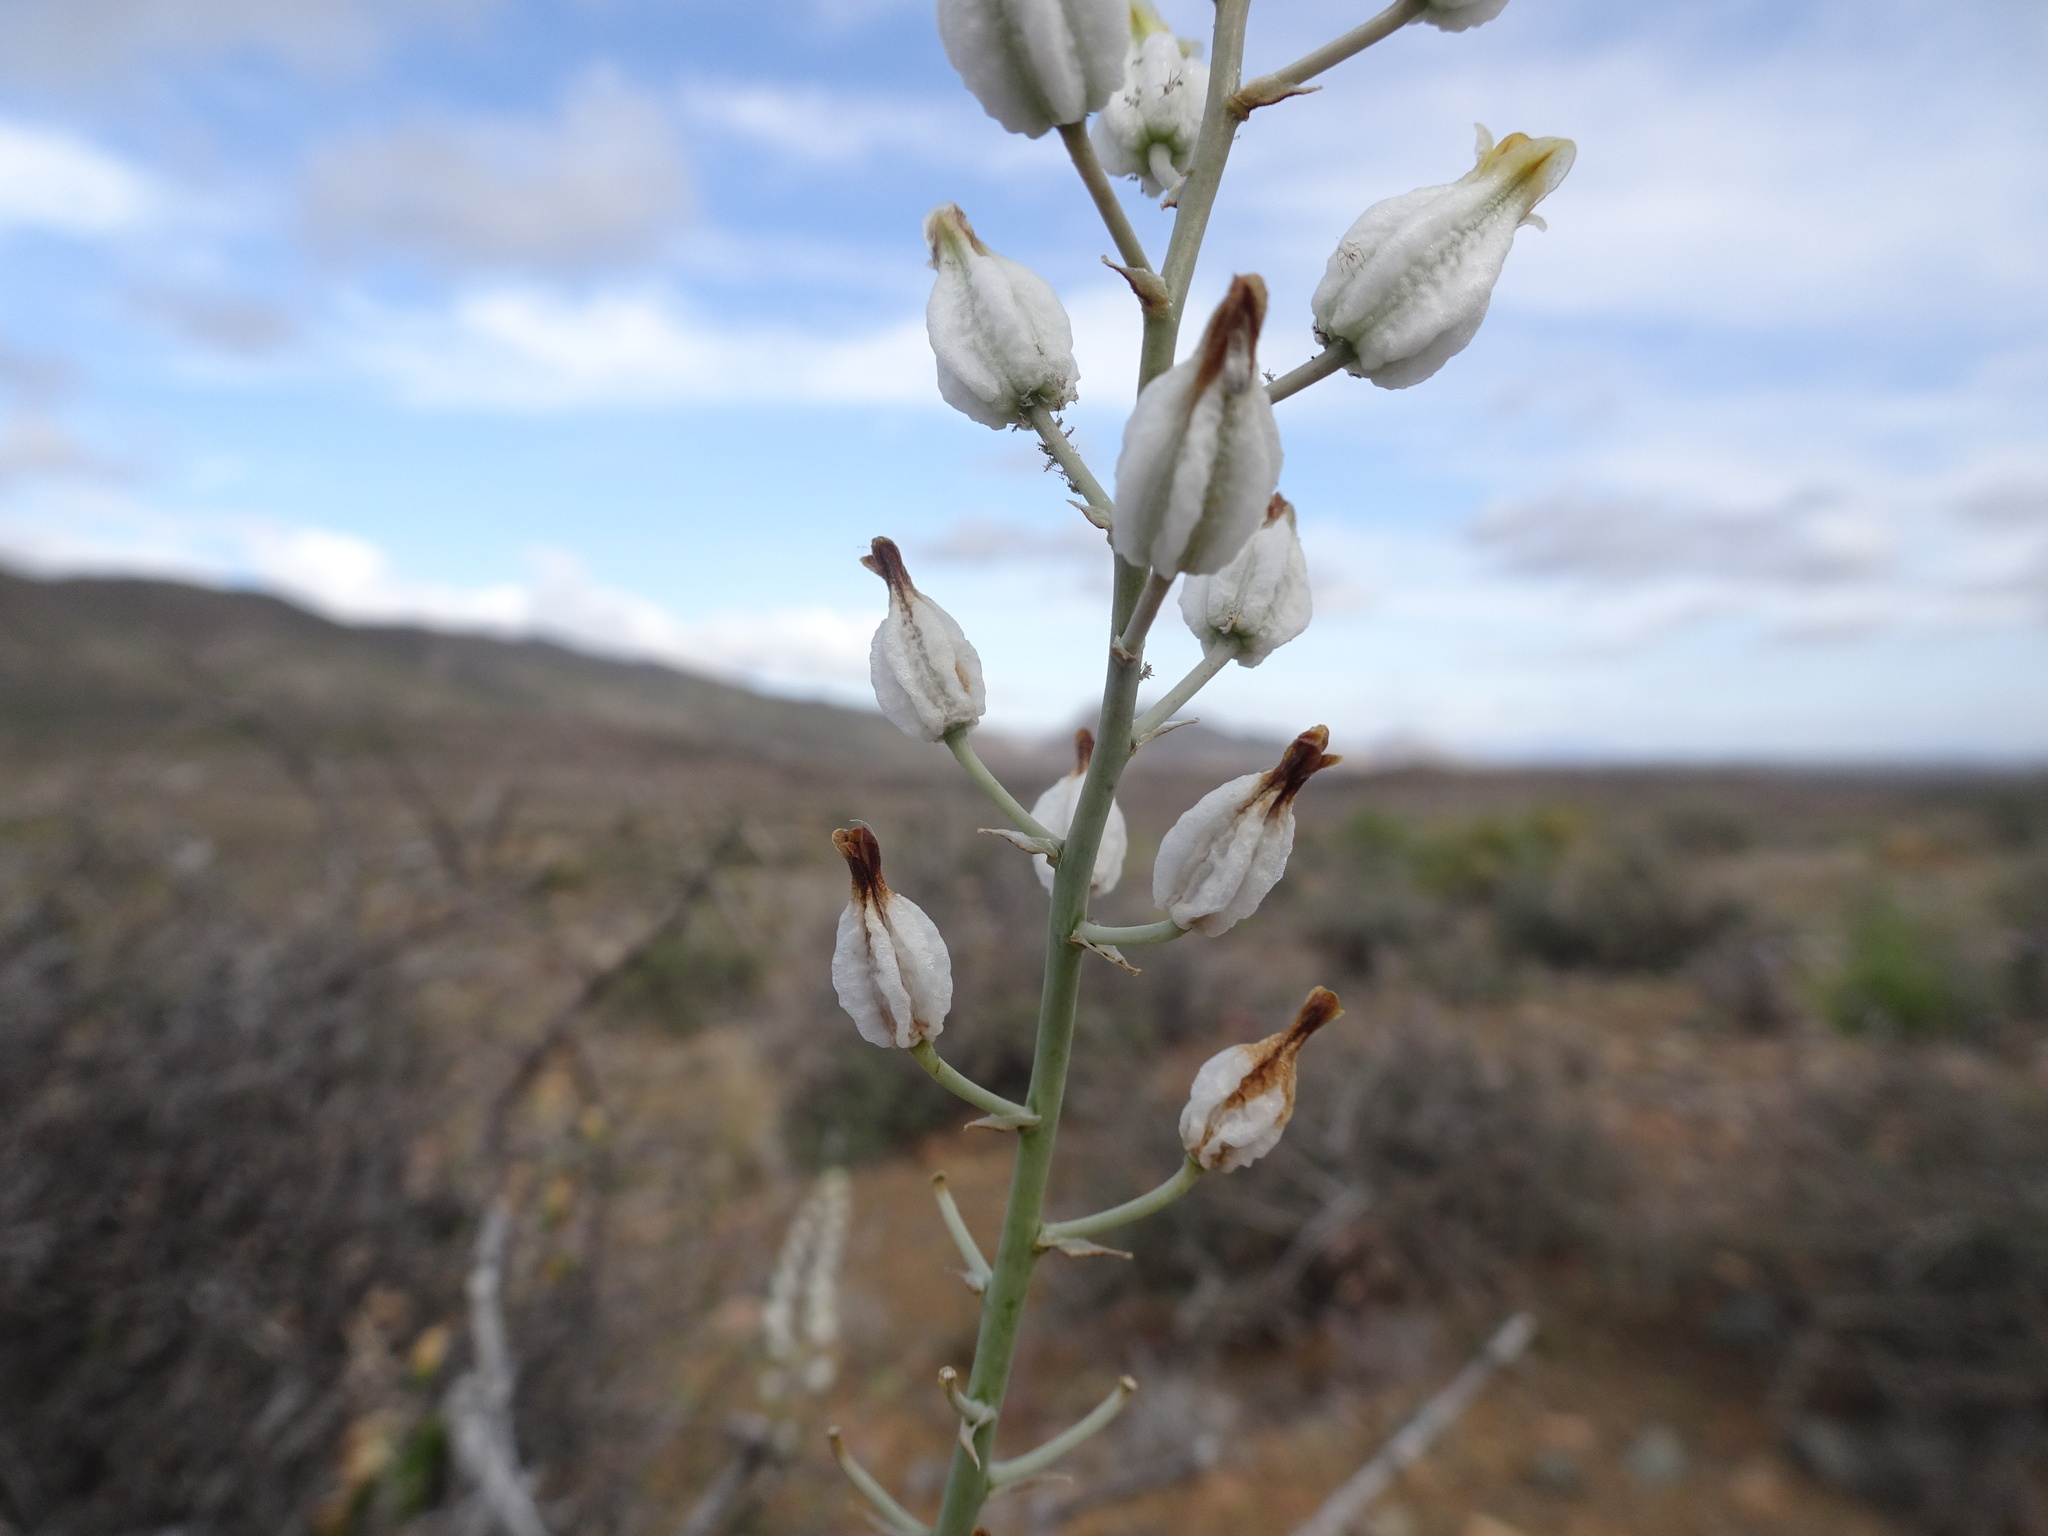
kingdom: Plantae
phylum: Tracheophyta
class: Liliopsida
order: Asparagales
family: Asphodelaceae
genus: Astroloba
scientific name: Astroloba herrei
